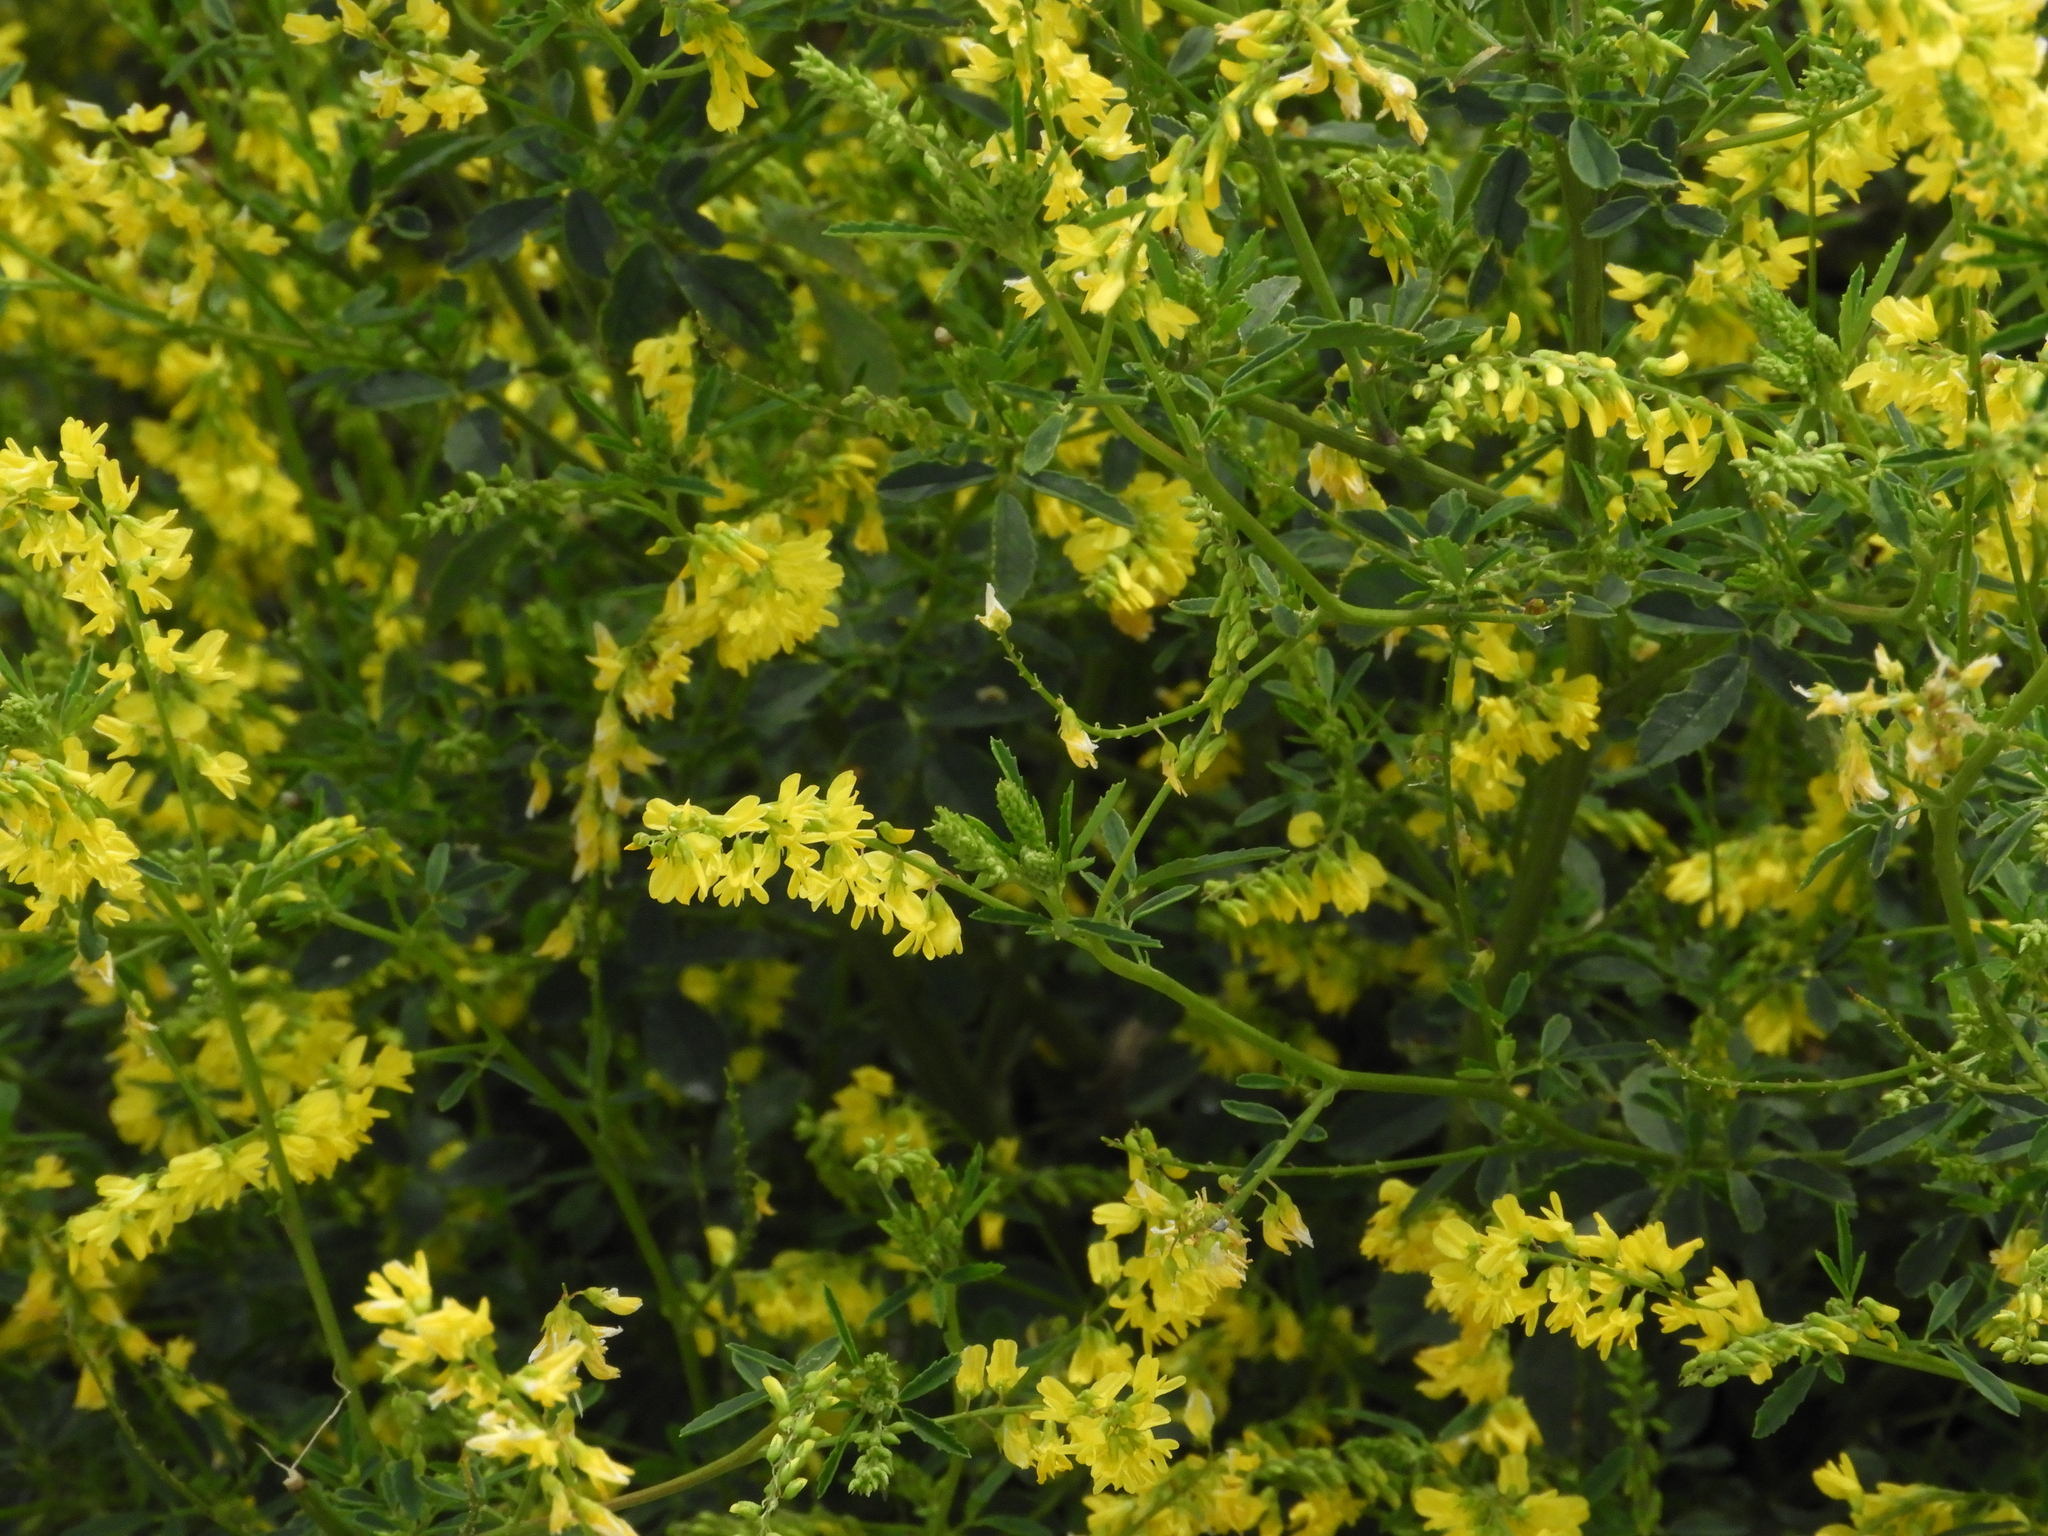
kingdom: Plantae
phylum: Tracheophyta
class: Magnoliopsida
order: Fabales
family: Fabaceae
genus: Melilotus
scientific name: Melilotus officinalis
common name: Sweetclover
